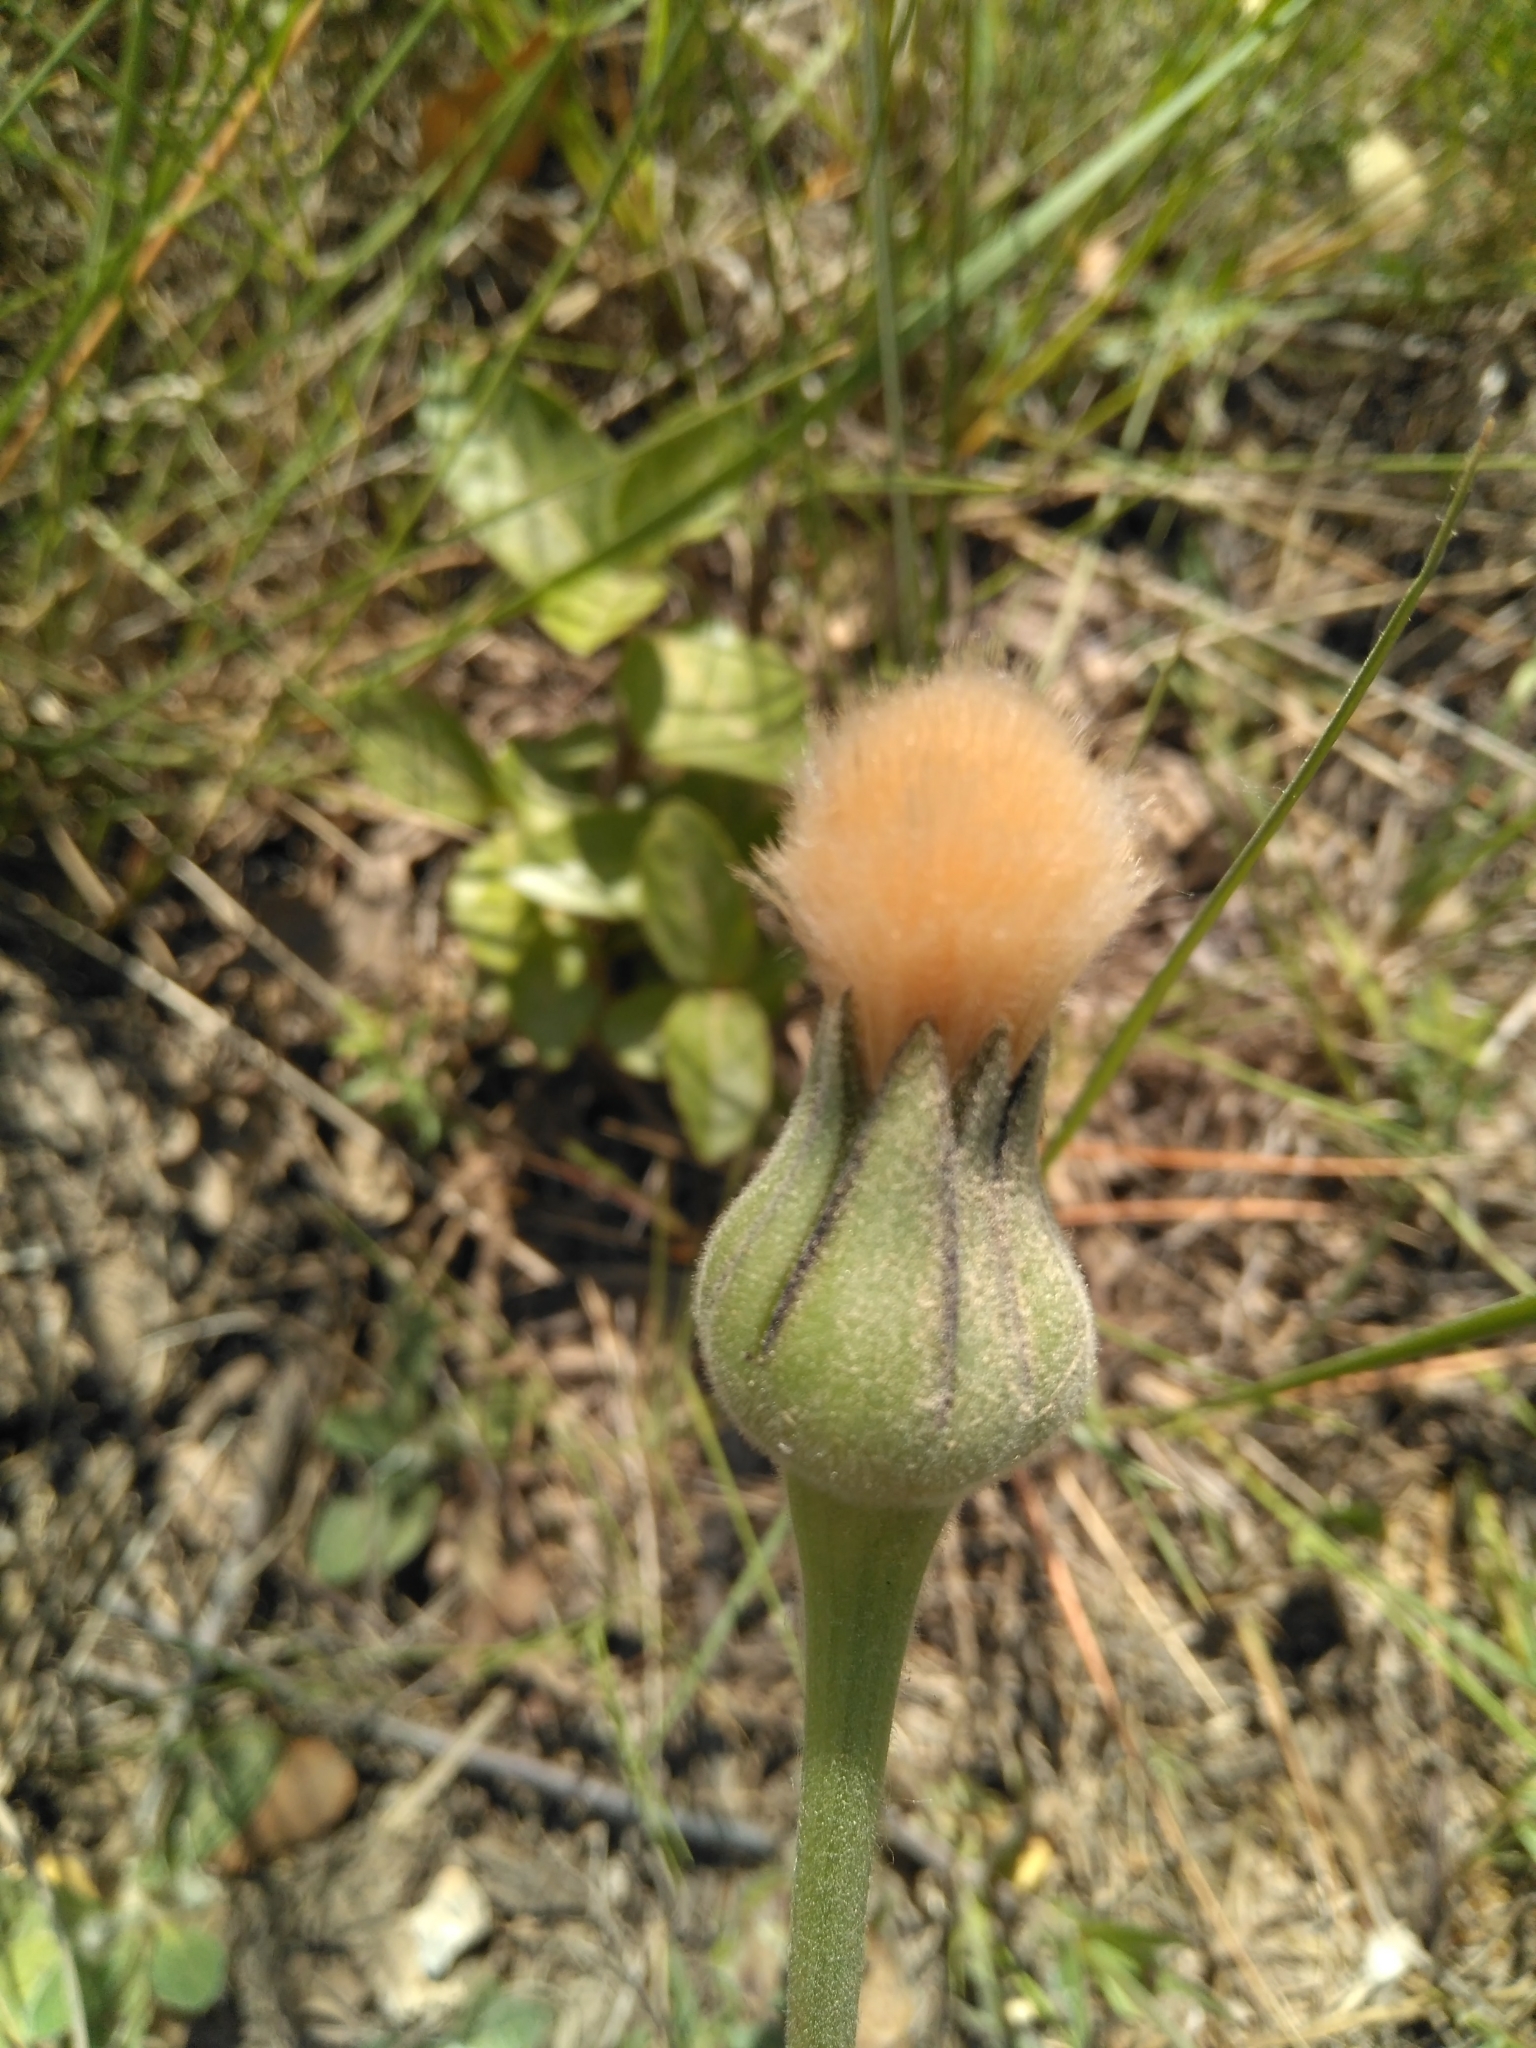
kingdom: Plantae
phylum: Tracheophyta
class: Magnoliopsida
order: Asterales
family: Asteraceae
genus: Urospermum
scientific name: Urospermum dalechampii
